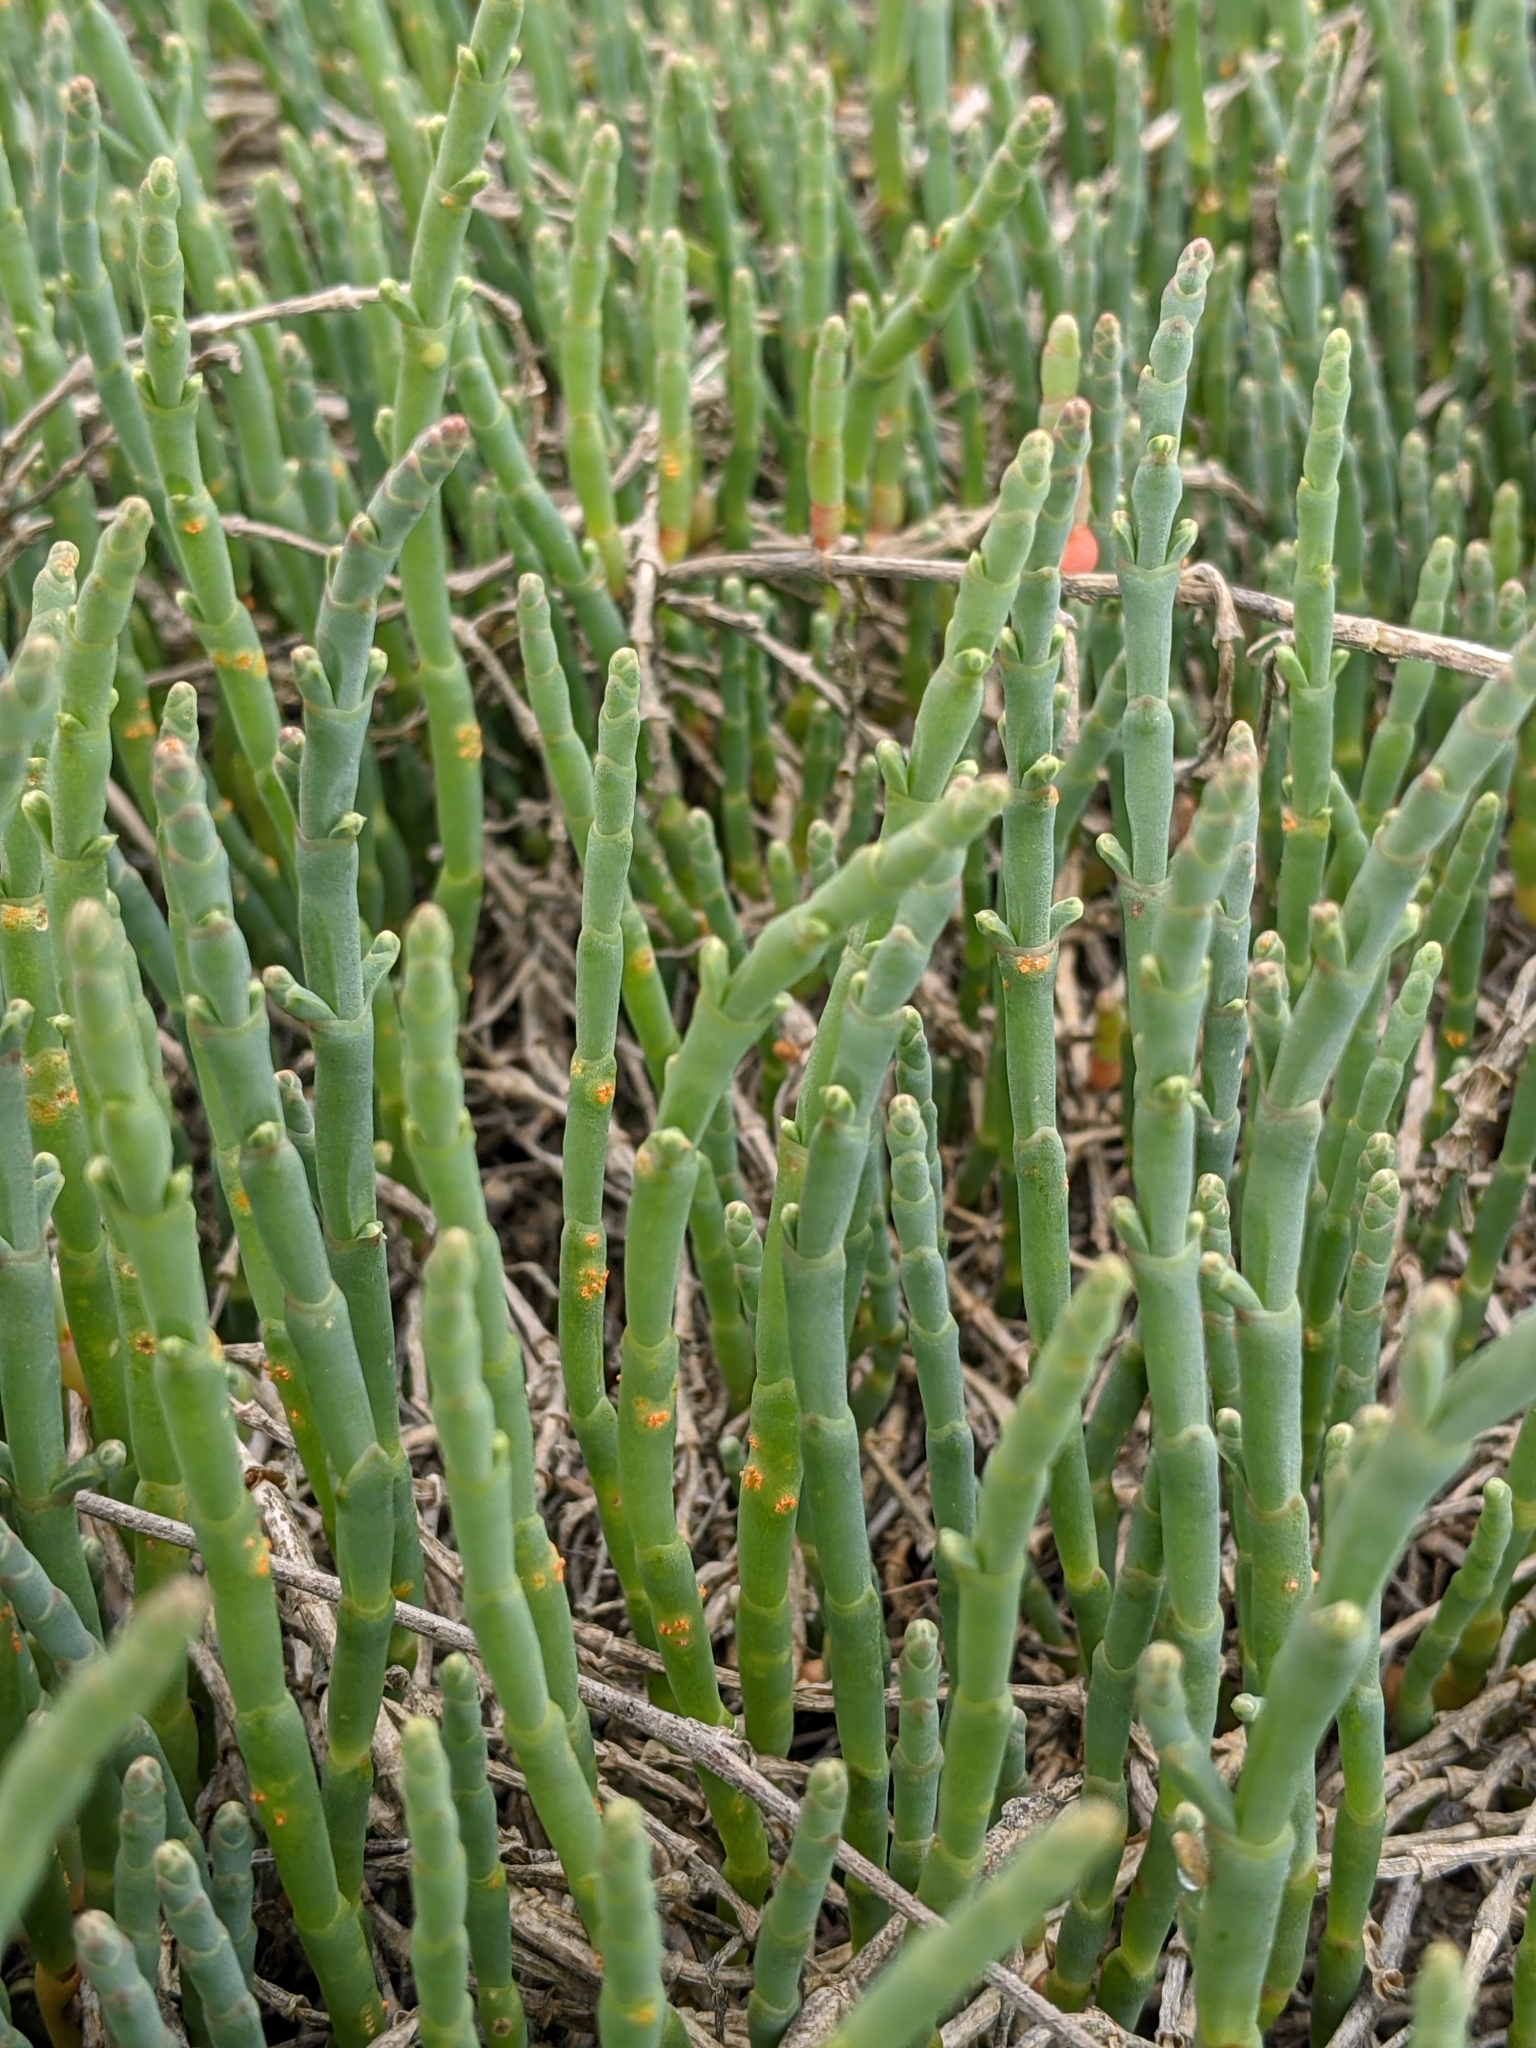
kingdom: Plantae
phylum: Tracheophyta
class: Magnoliopsida
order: Caryophyllales
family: Amaranthaceae
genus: Salicornia
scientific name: Salicornia pacifica
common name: Pacific glasswort
